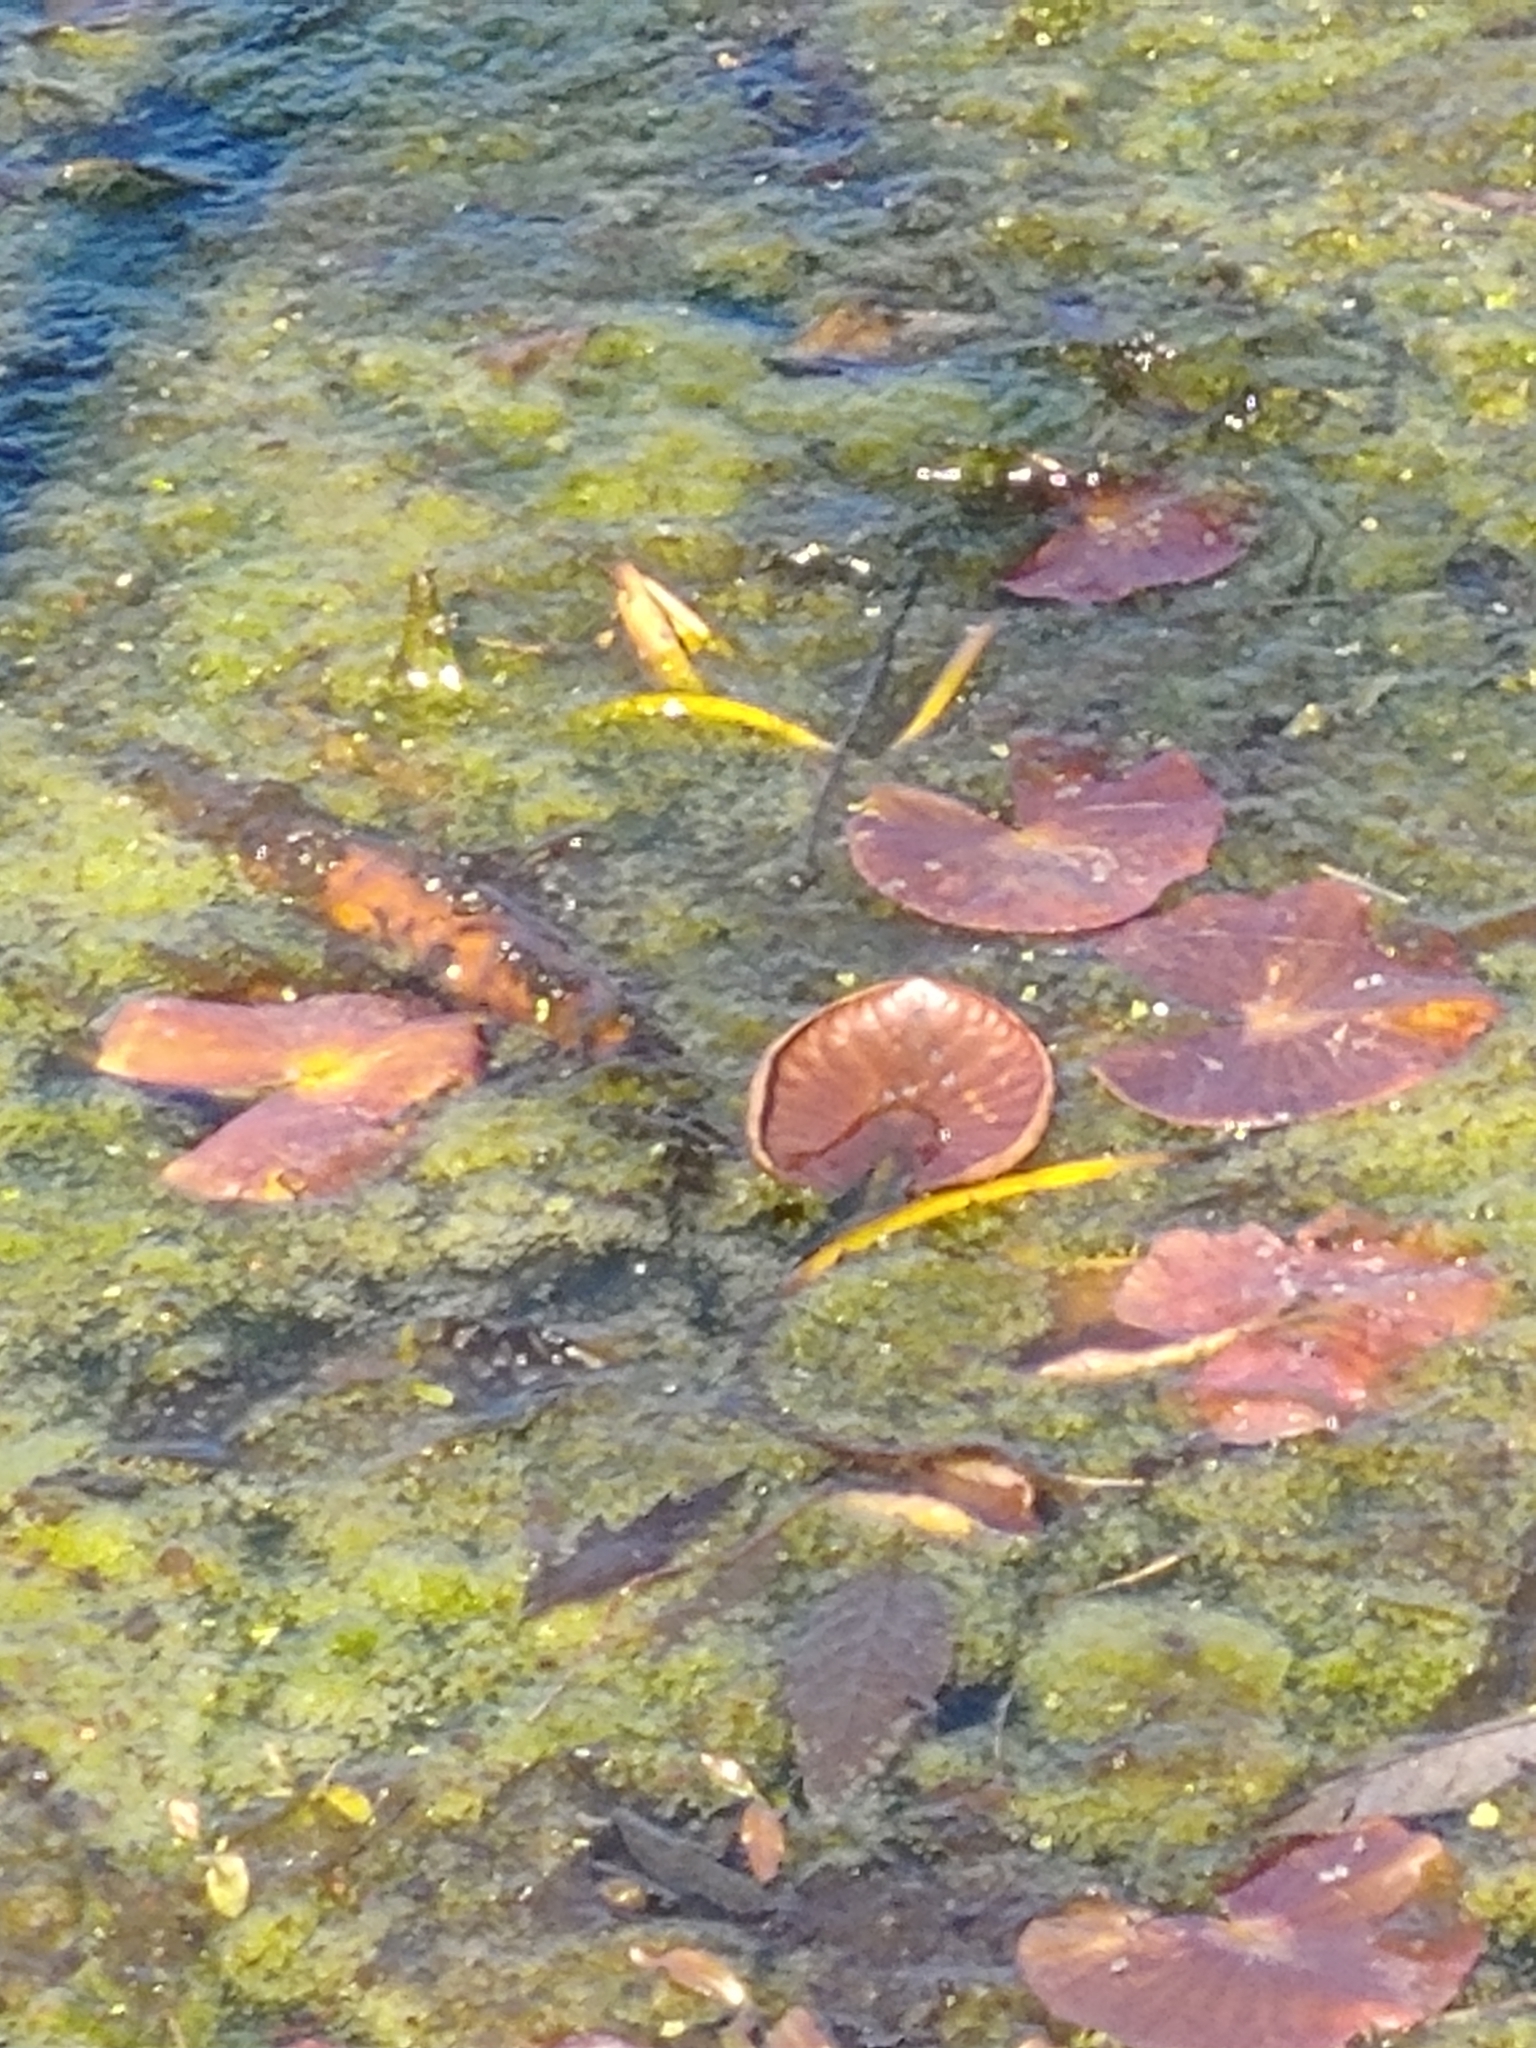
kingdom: Plantae
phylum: Tracheophyta
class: Magnoliopsida
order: Nymphaeales
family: Nymphaeaceae
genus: Nymphaea
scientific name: Nymphaea odorata
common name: Fragrant water-lily
